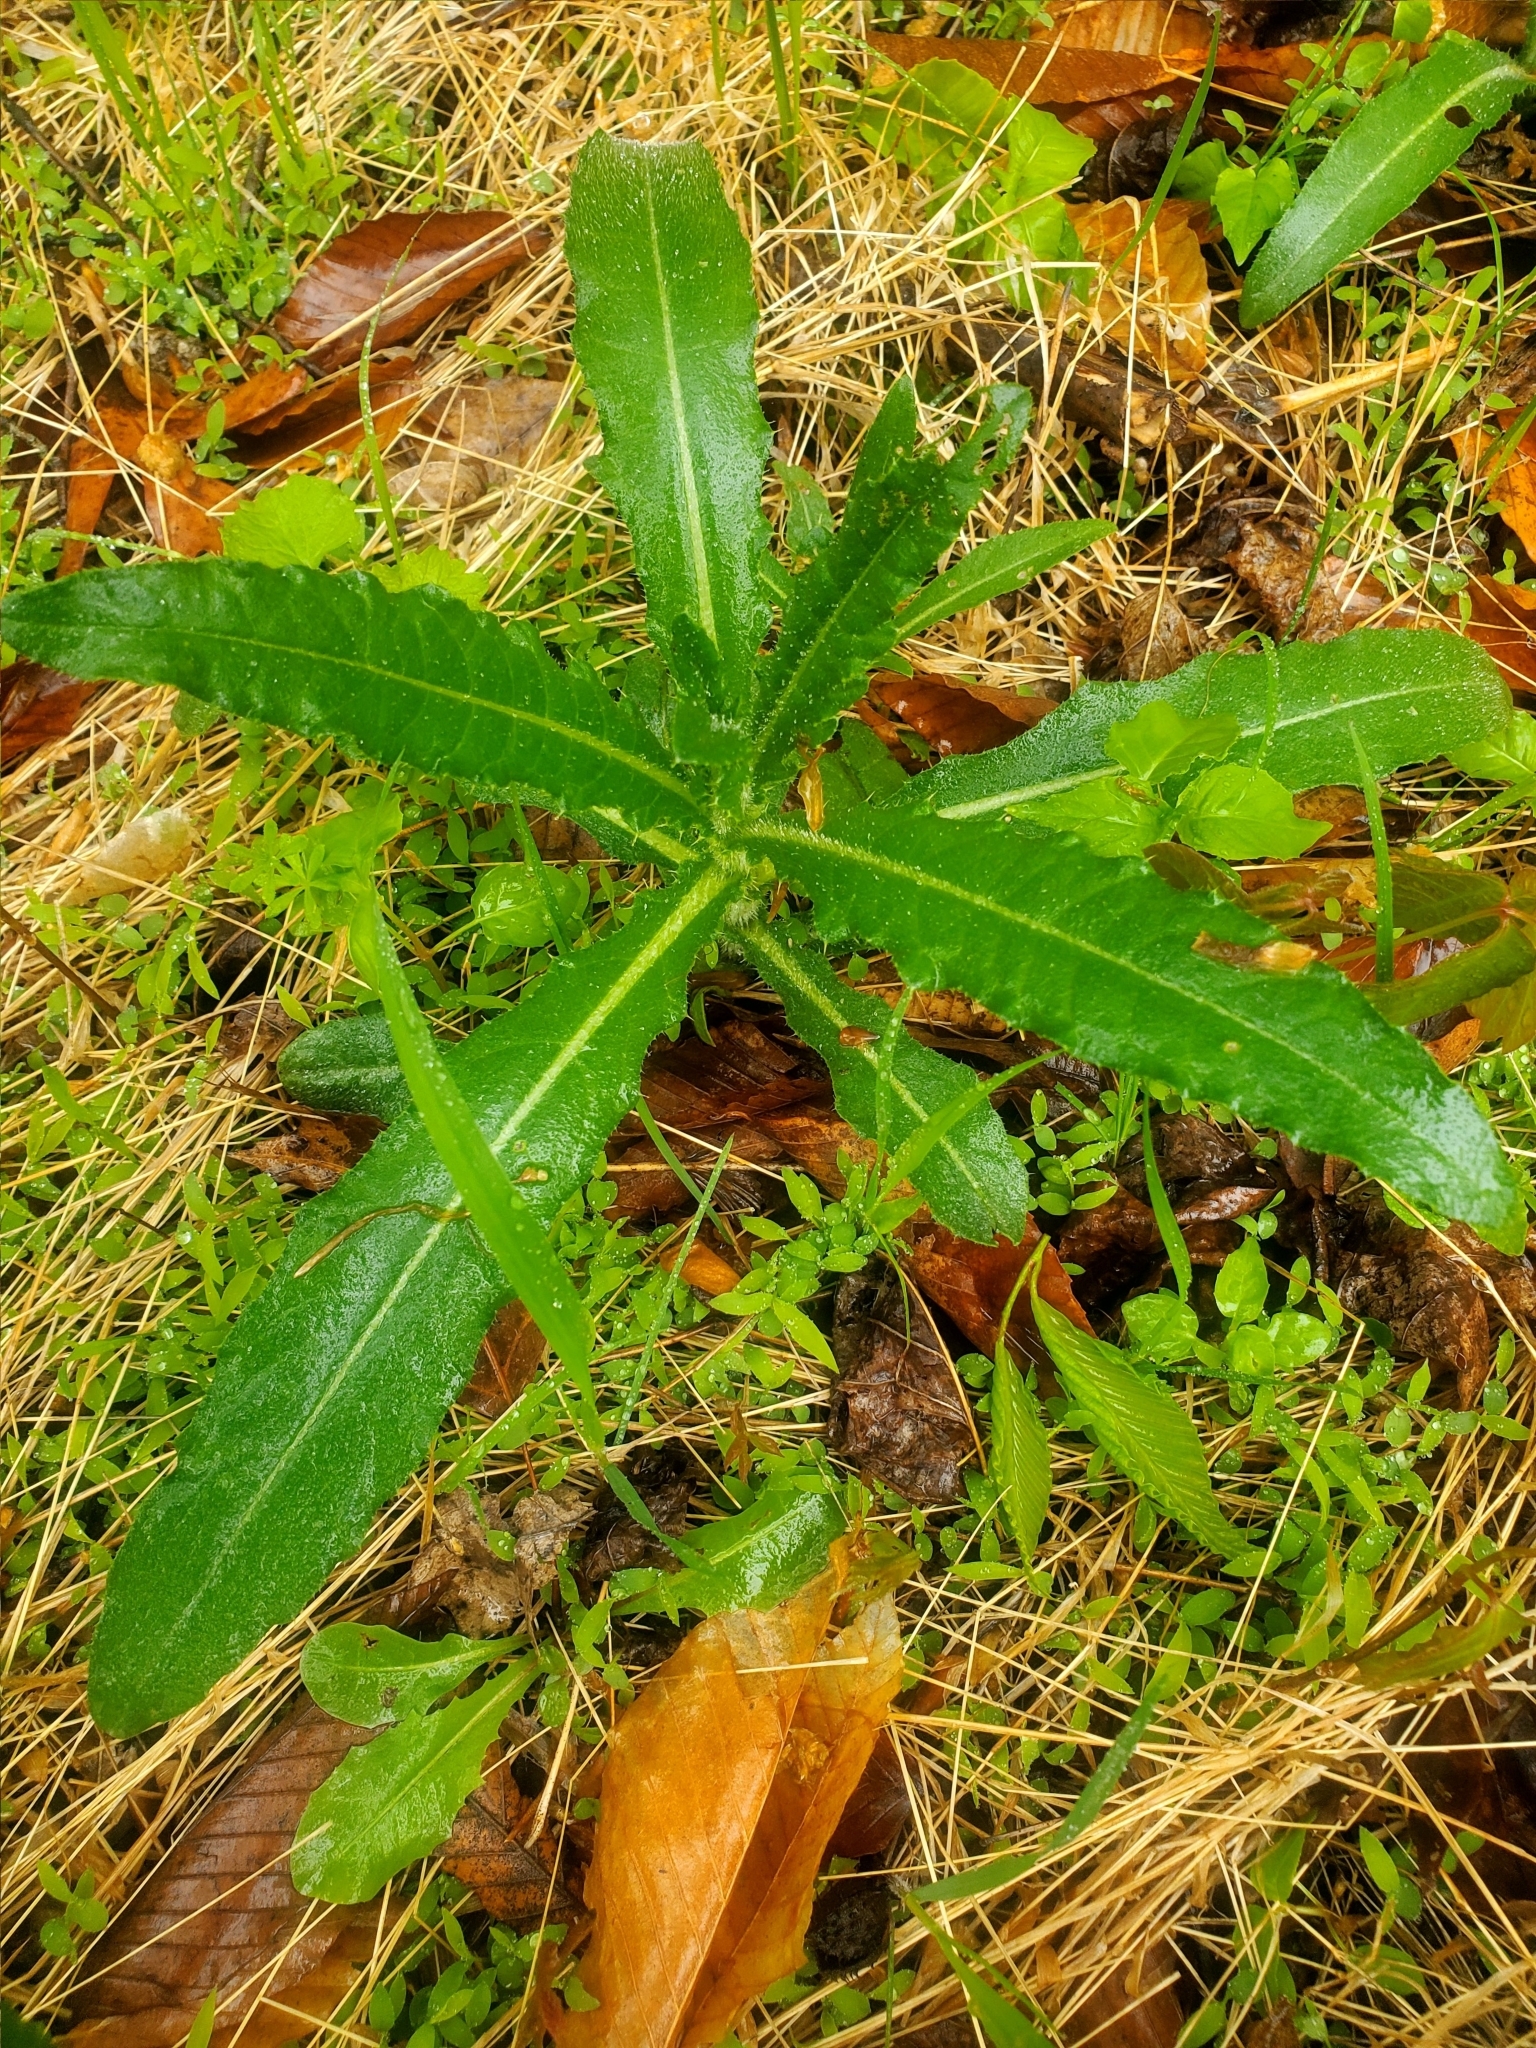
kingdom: Plantae
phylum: Tracheophyta
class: Magnoliopsida
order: Asterales
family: Asteraceae
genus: Cirsium
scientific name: Cirsium arvense
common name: Creeping thistle
